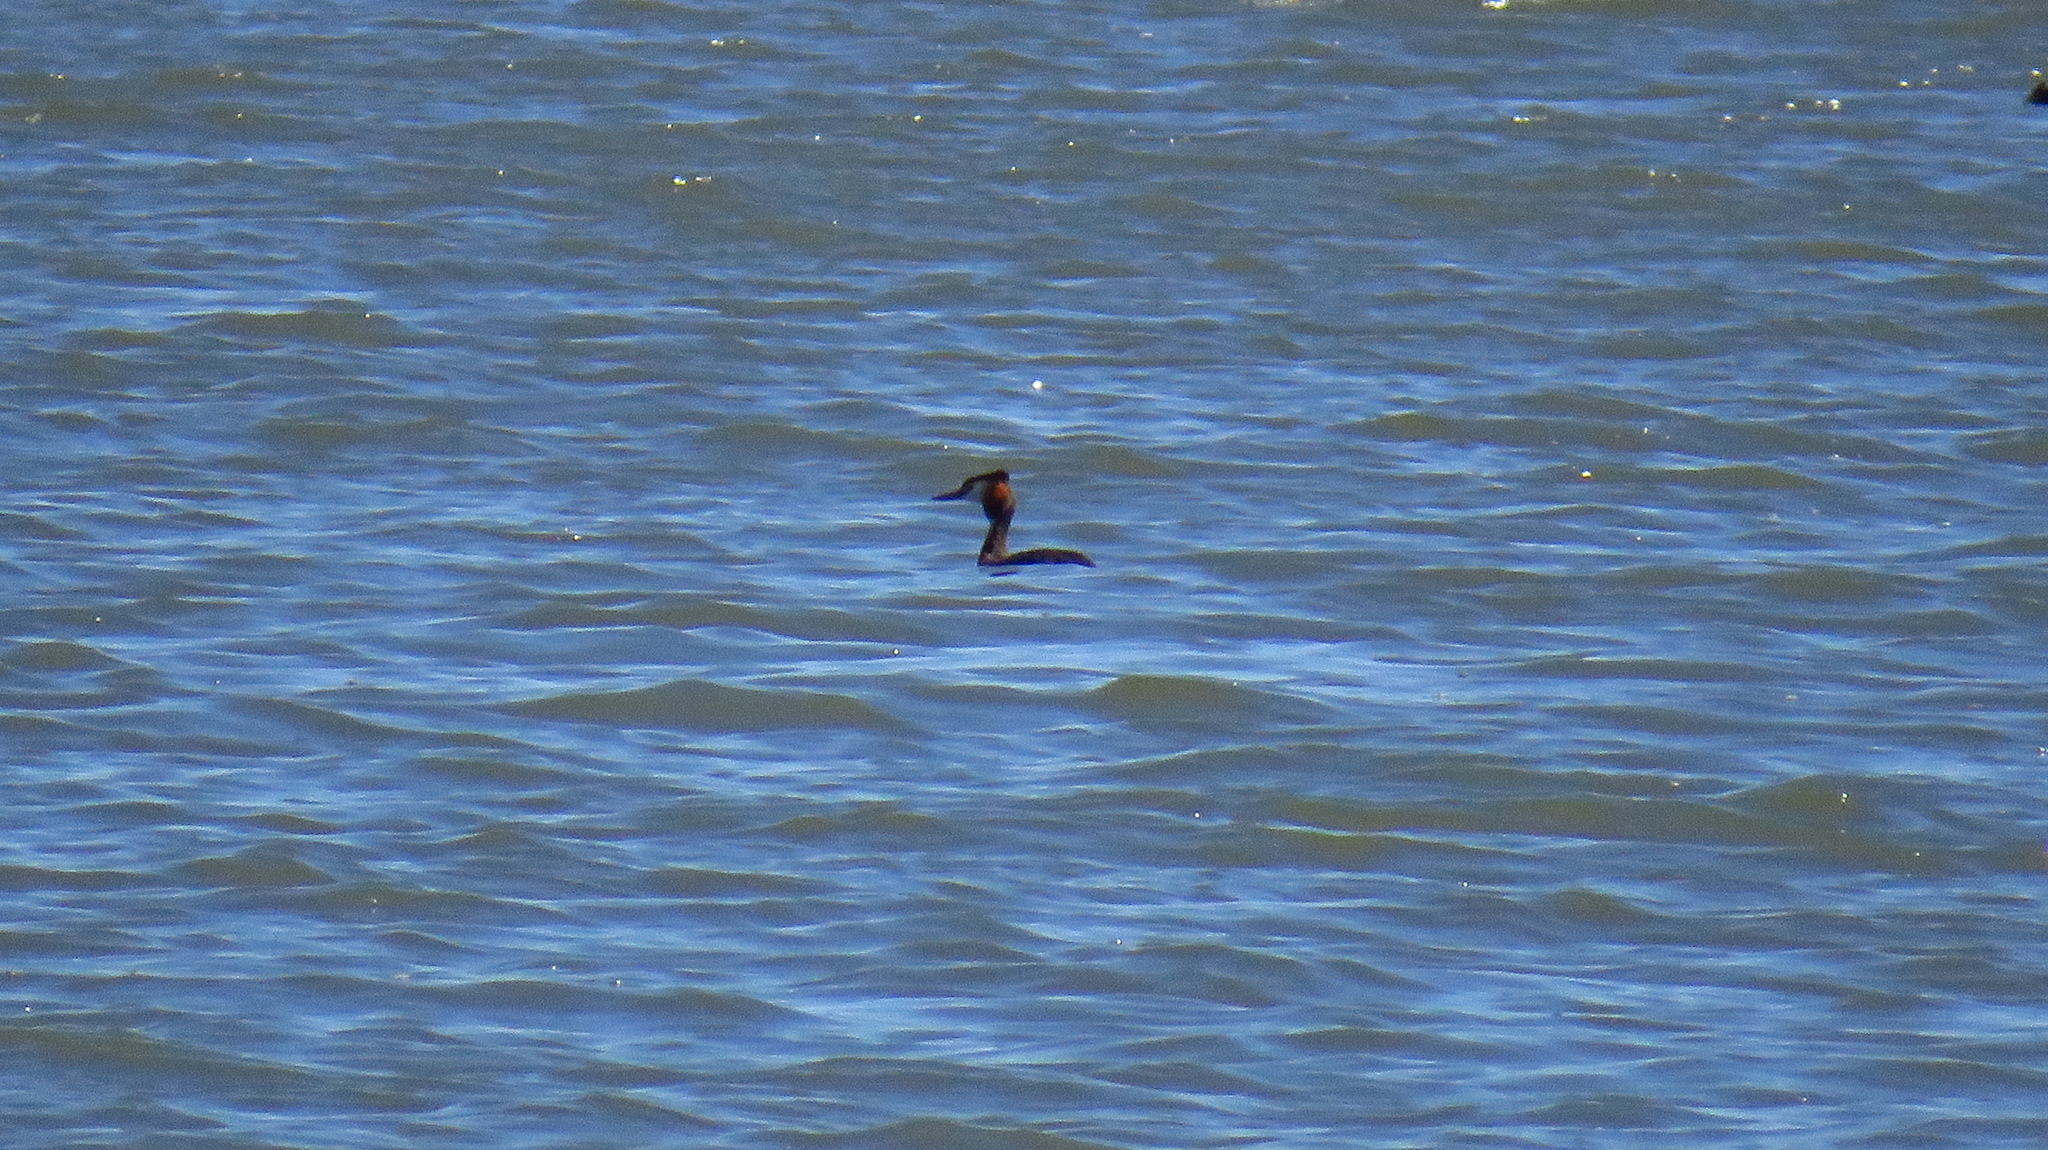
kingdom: Animalia
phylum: Chordata
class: Aves
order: Podicipediformes
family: Podicipedidae
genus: Podiceps
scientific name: Podiceps cristatus
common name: Great crested grebe
